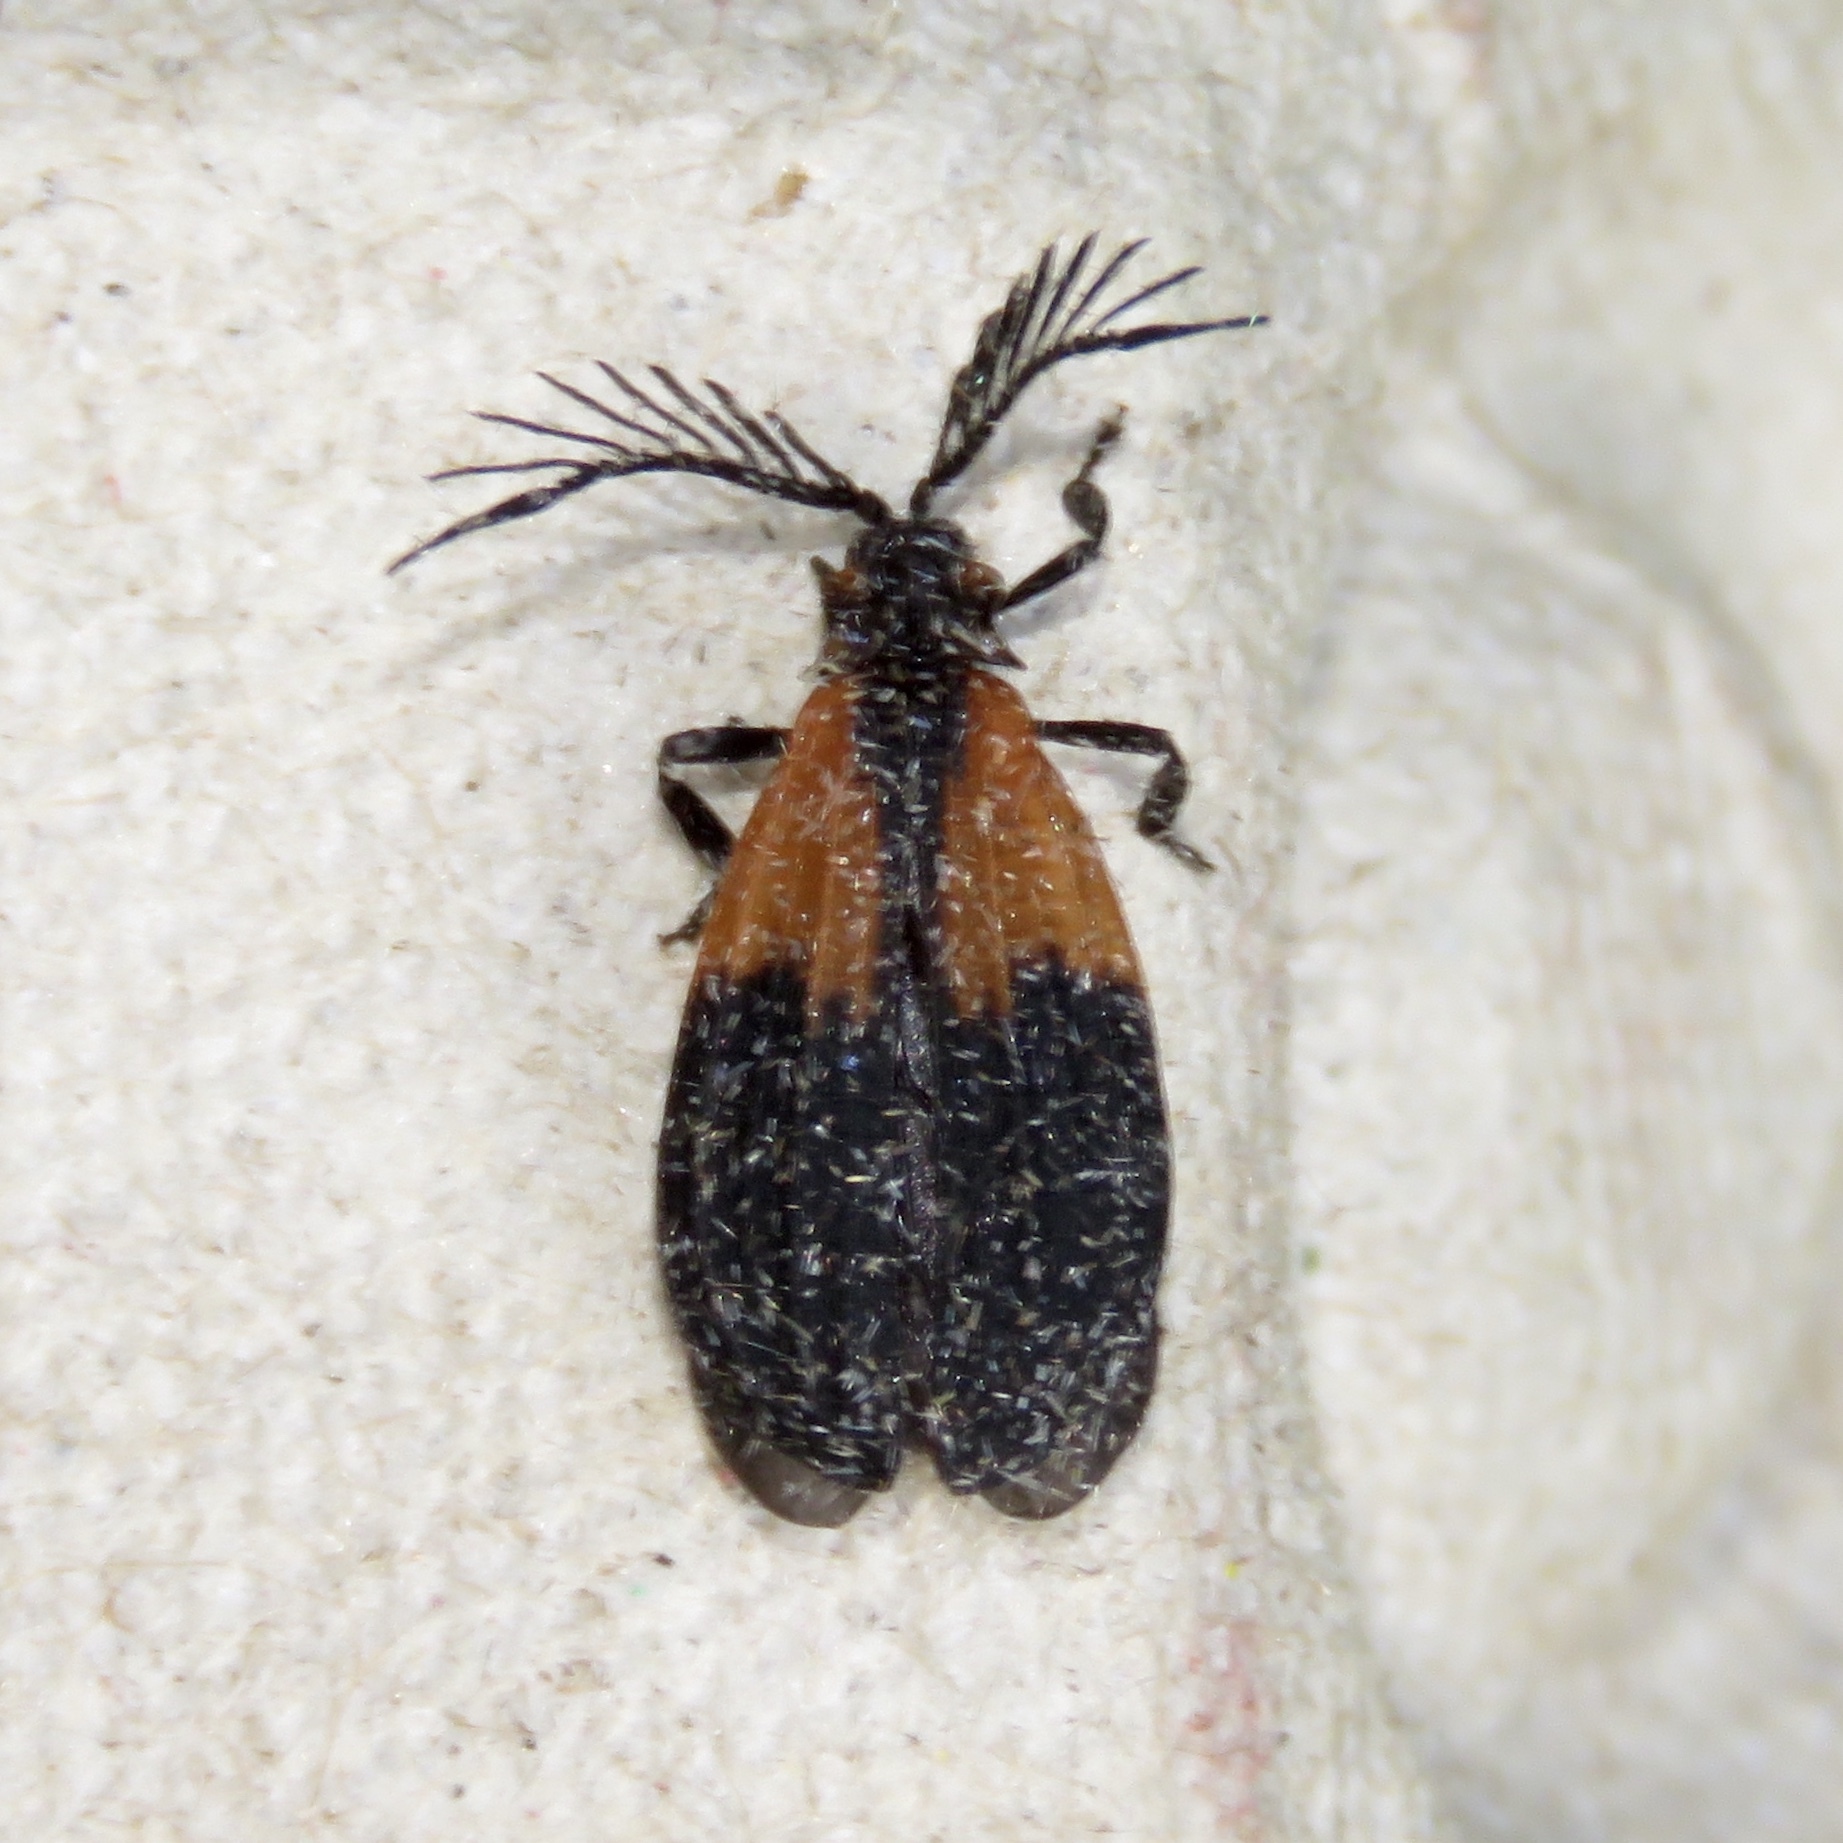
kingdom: Animalia
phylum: Arthropoda
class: Insecta
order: Coleoptera
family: Lycidae
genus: Caenia
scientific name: Caenia dimidiata
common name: Terminal net-winged beetle
